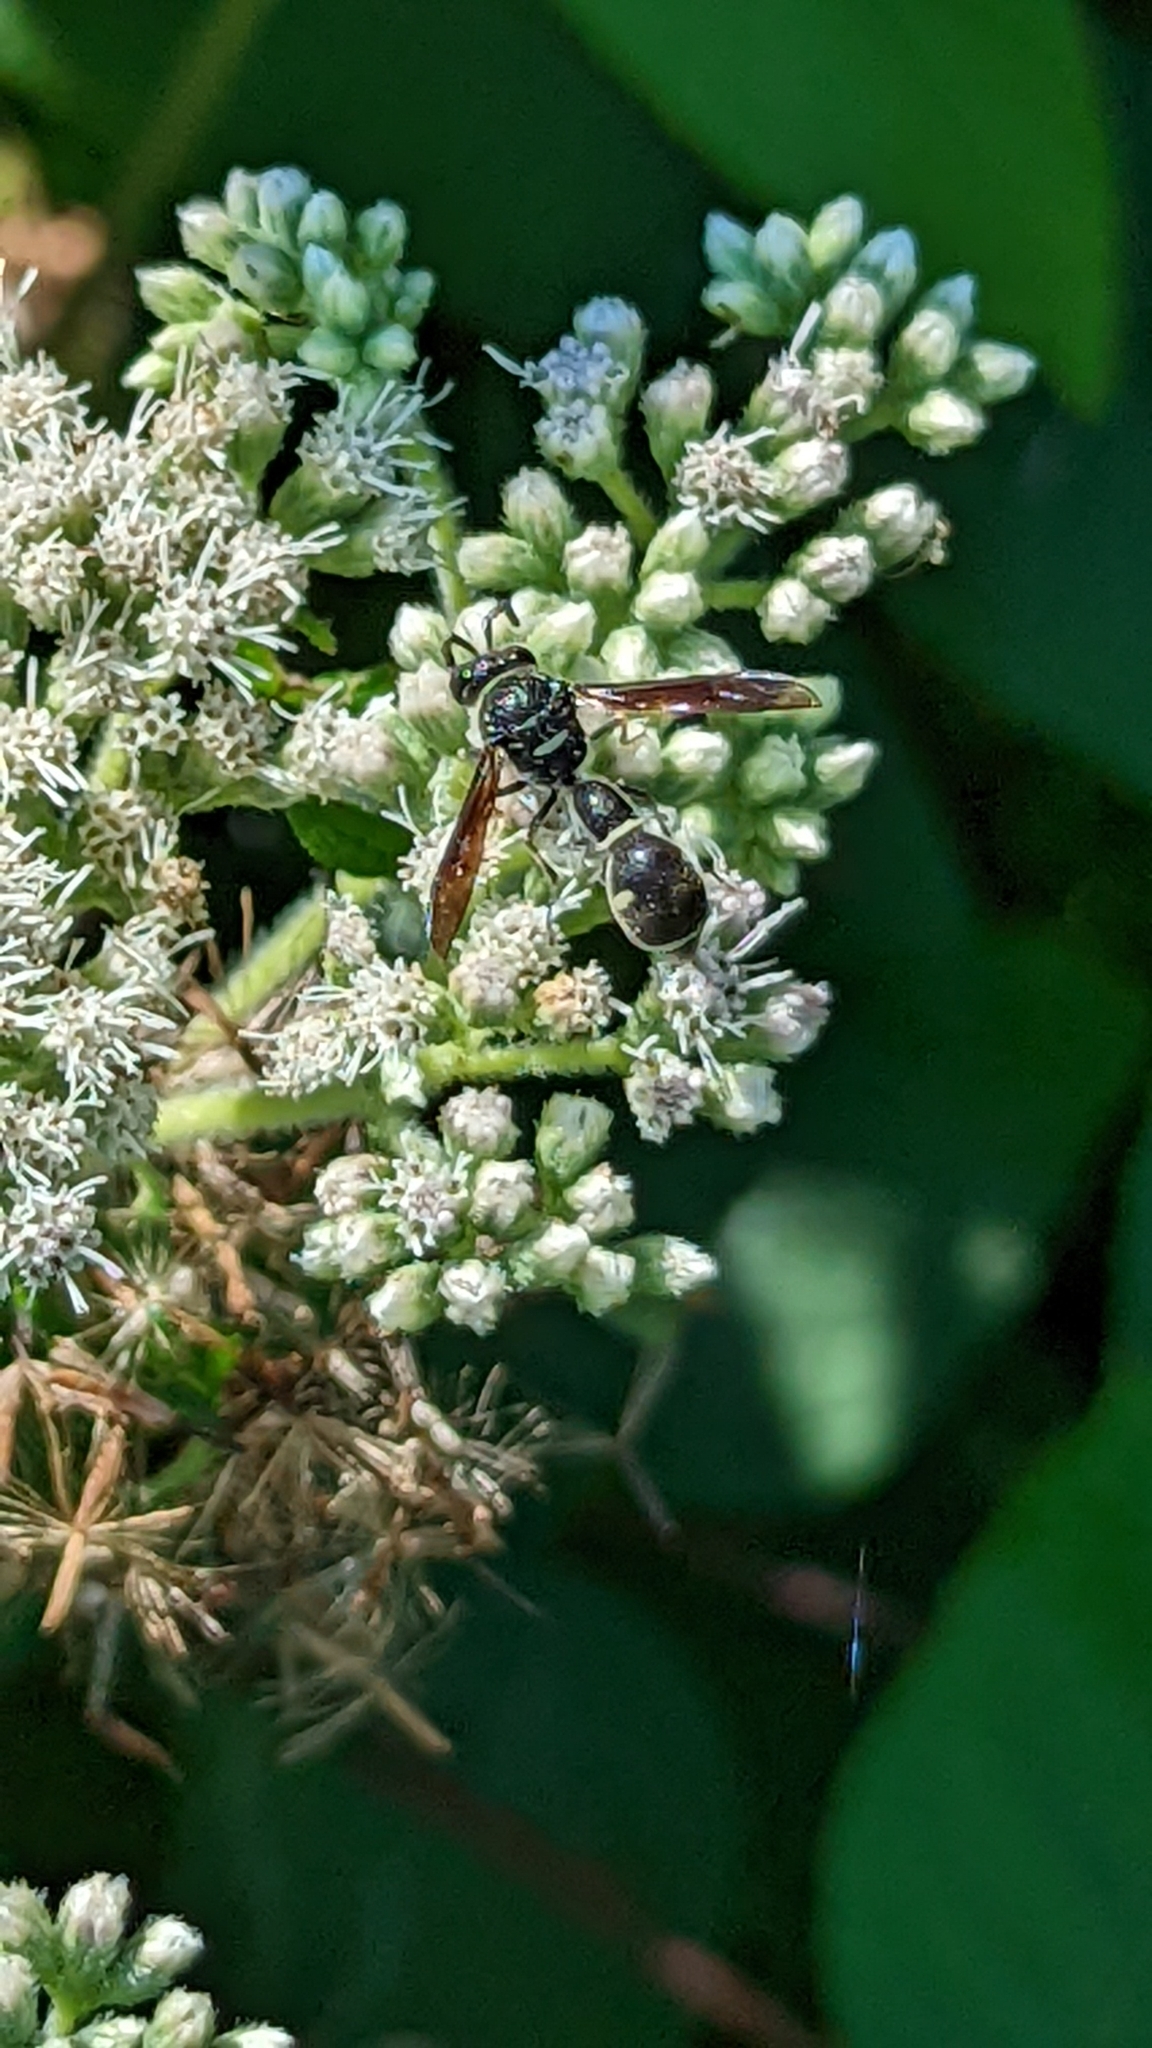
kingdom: Animalia
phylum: Arthropoda
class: Insecta
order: Hymenoptera
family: Vespidae
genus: Eumenes
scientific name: Eumenes fraternus
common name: Fraternal potter wasp
